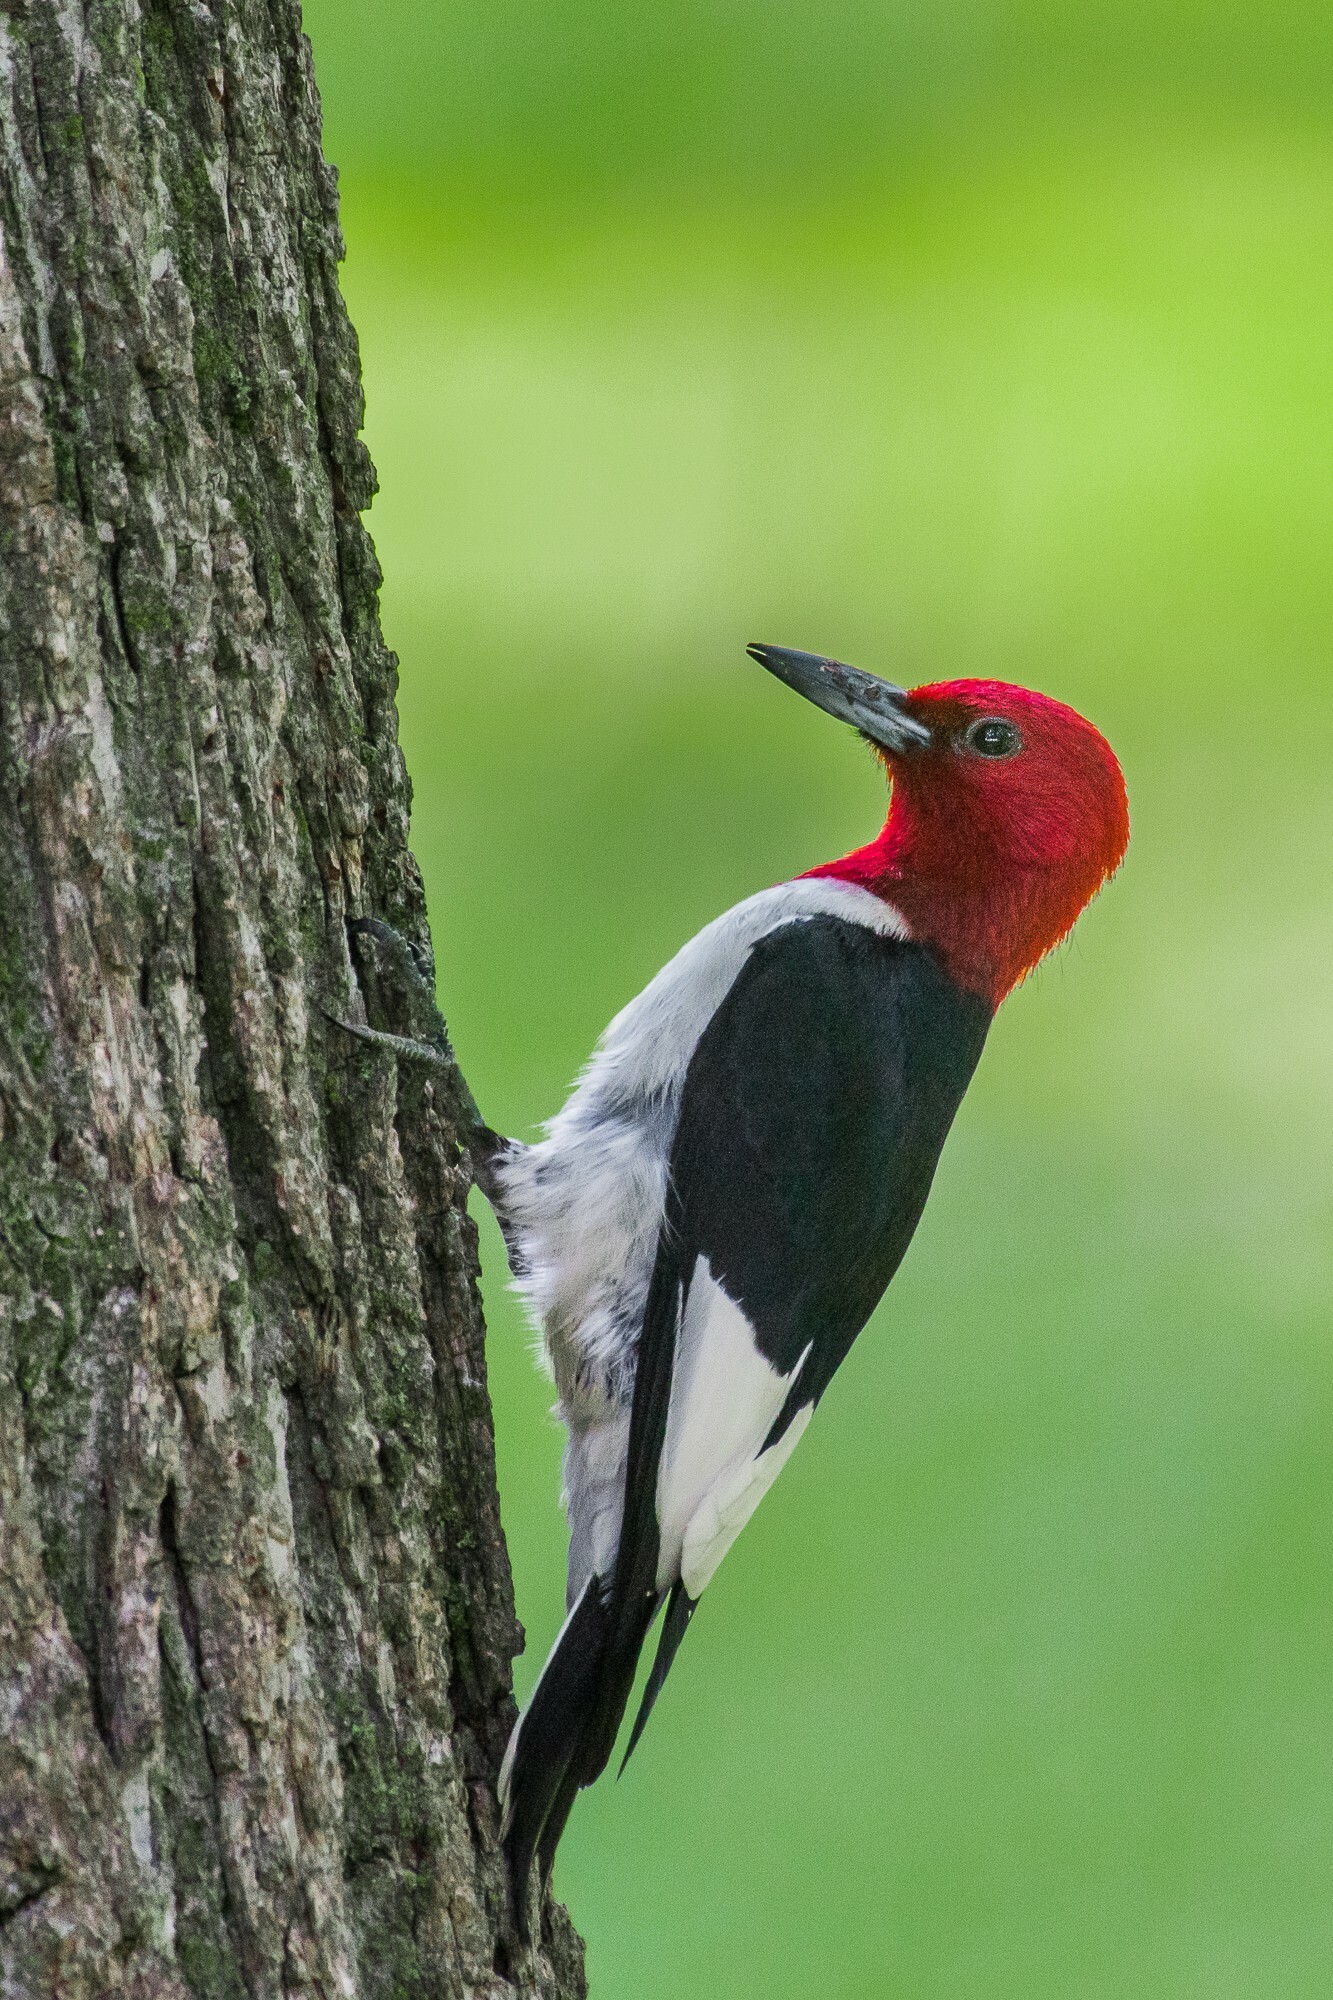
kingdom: Animalia
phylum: Chordata
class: Aves
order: Piciformes
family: Picidae
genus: Melanerpes
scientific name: Melanerpes erythrocephalus
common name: Red-headed woodpecker
